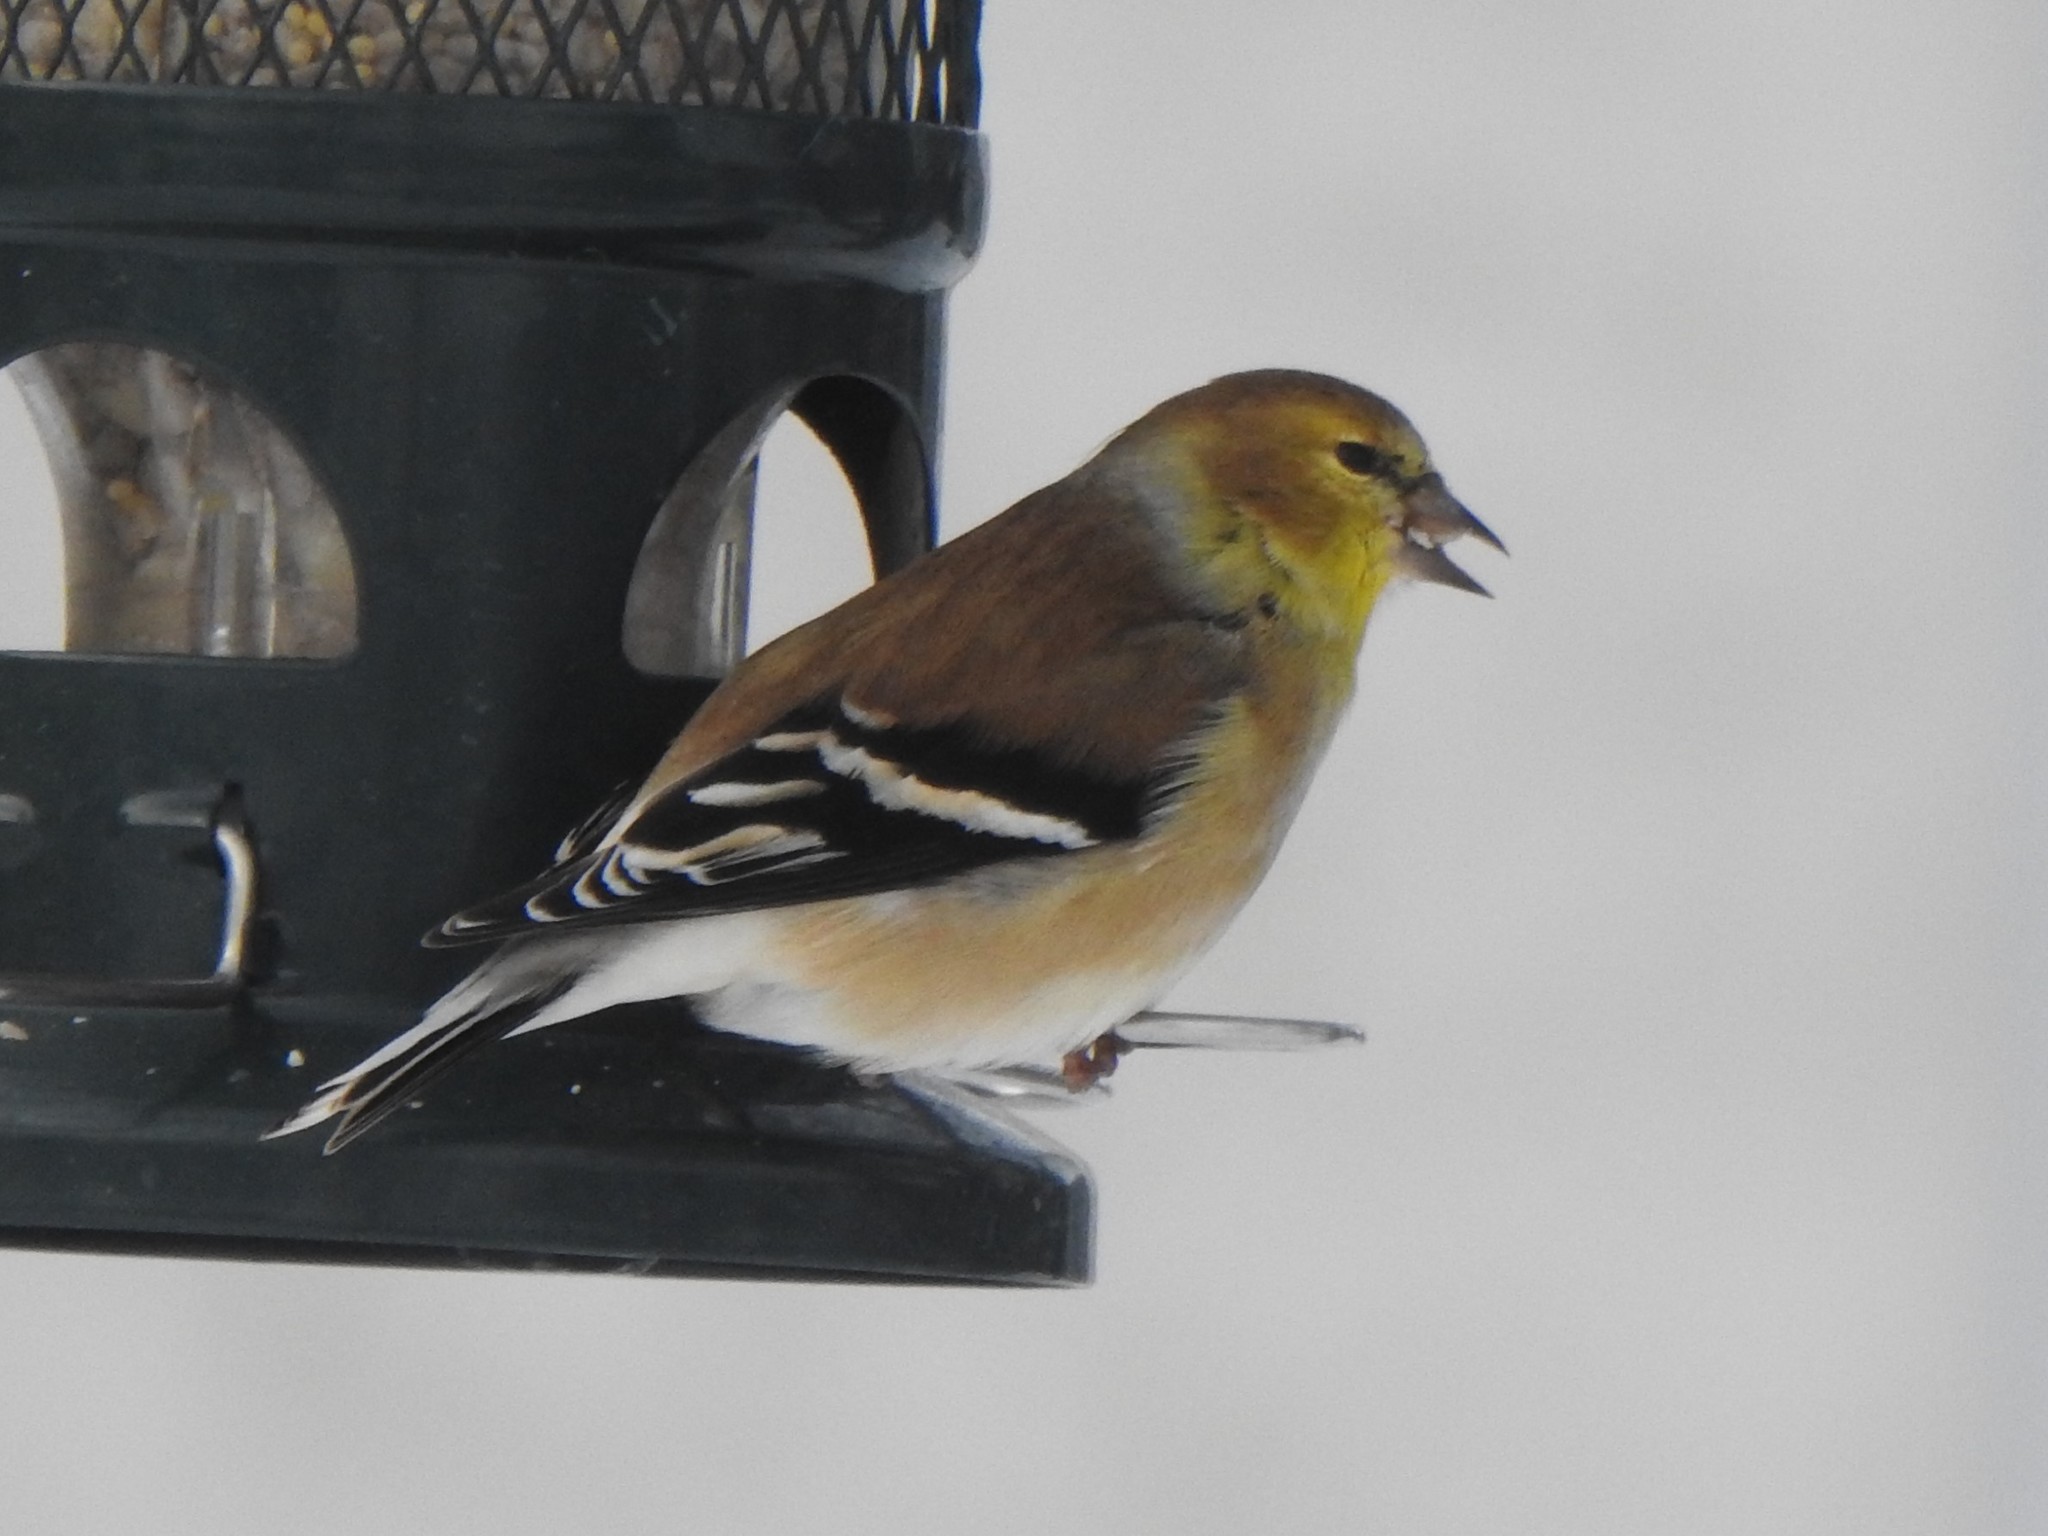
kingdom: Animalia
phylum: Chordata
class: Aves
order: Passeriformes
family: Fringillidae
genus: Spinus
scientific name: Spinus tristis
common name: American goldfinch
